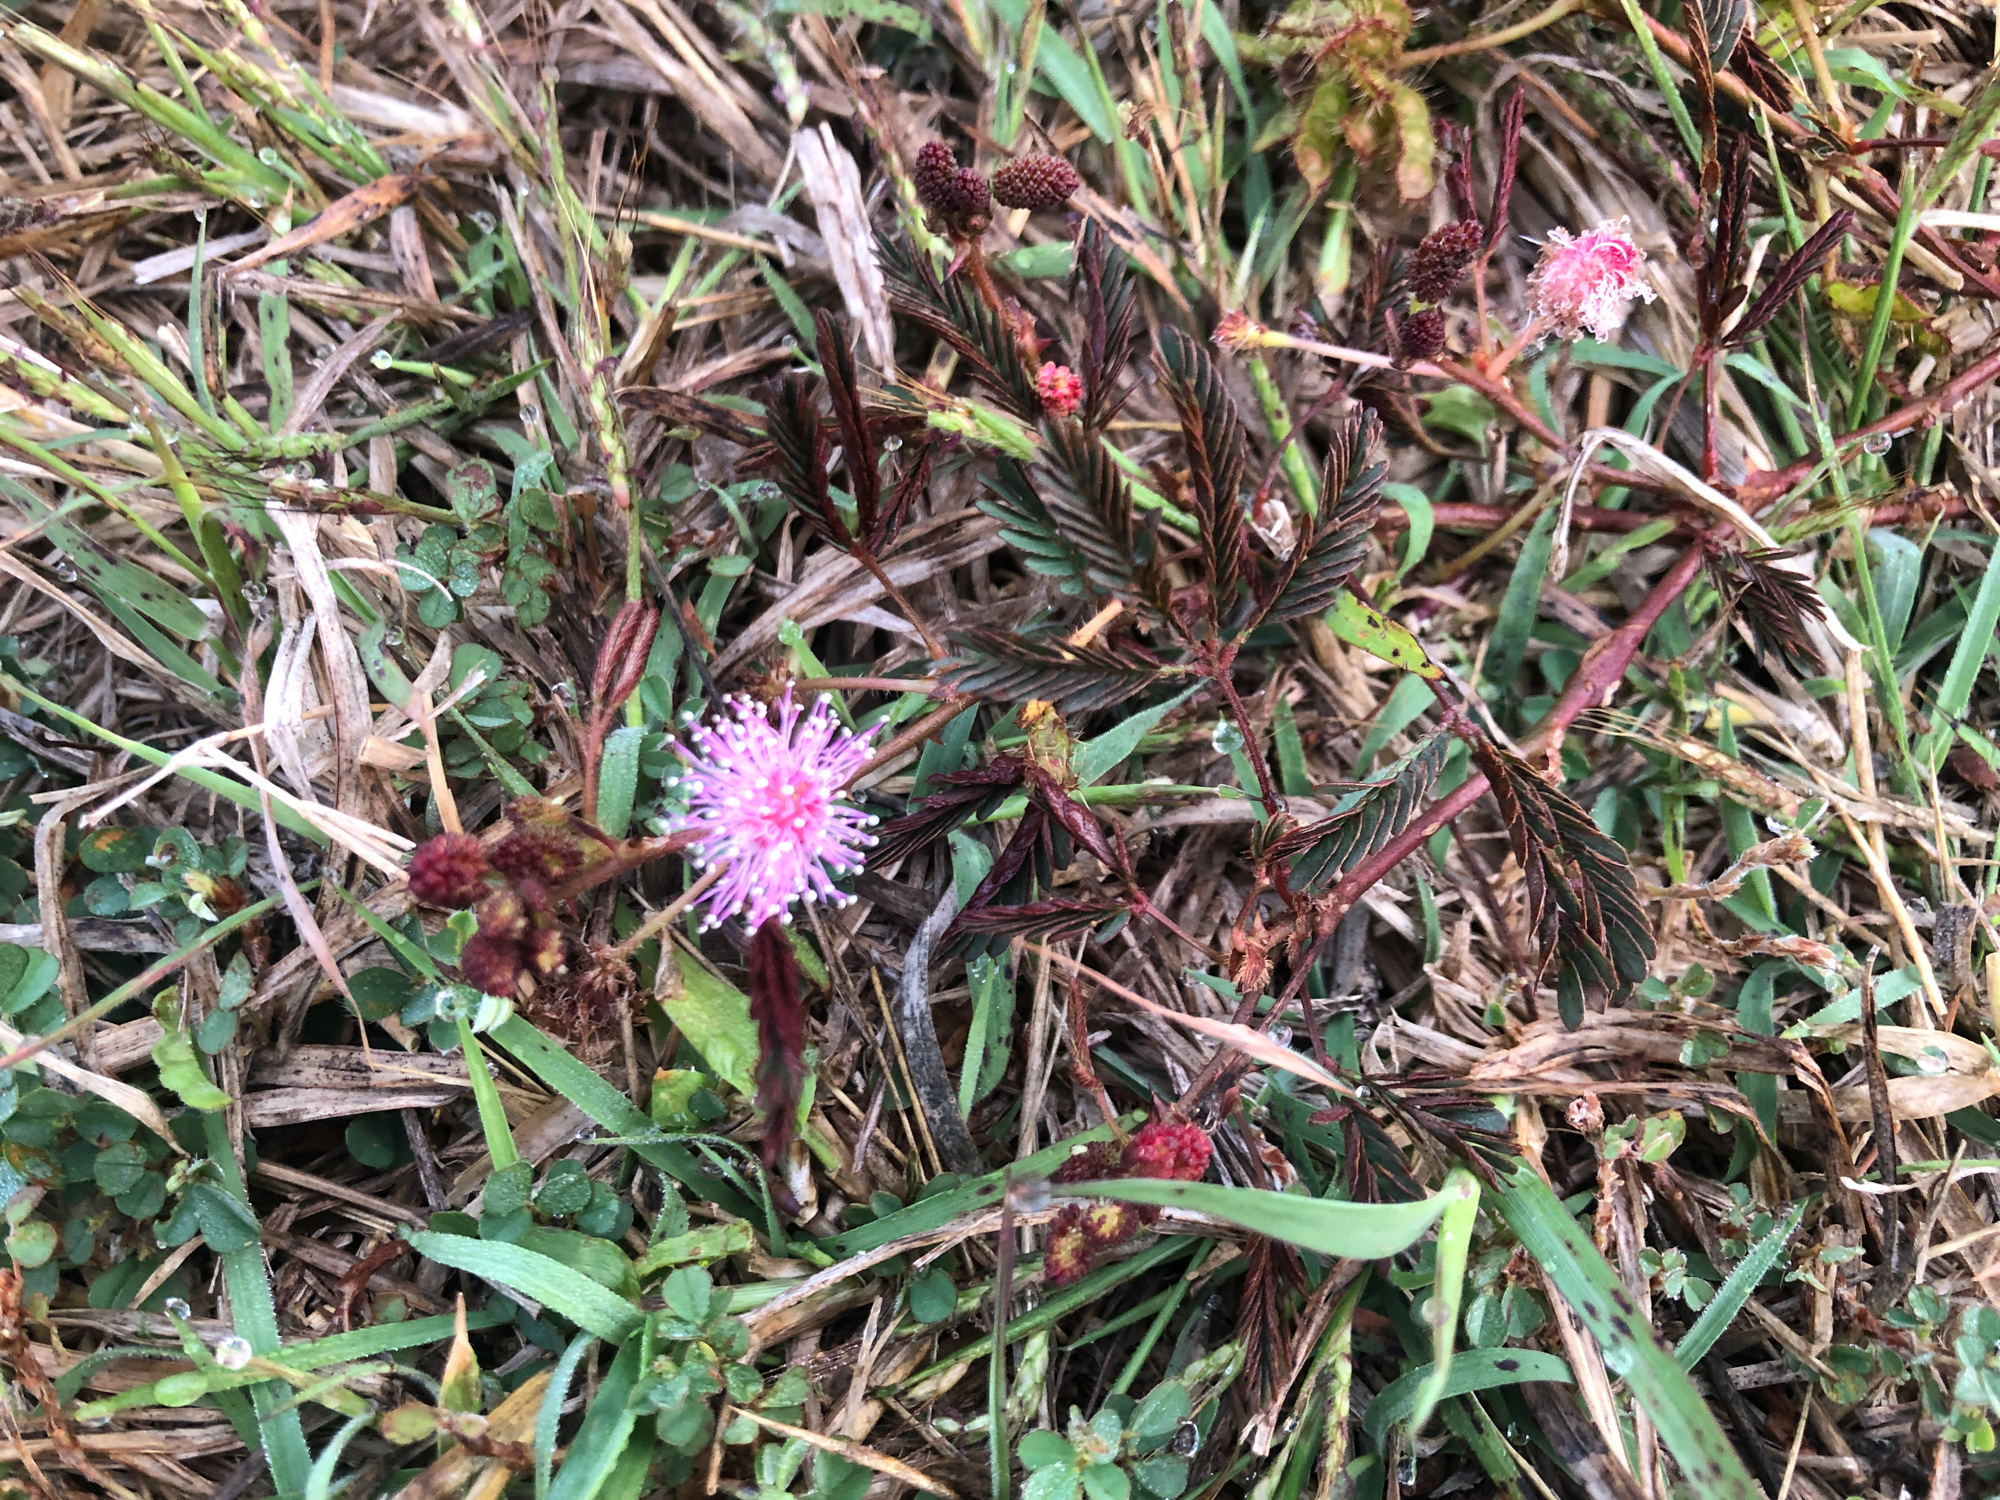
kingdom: Plantae
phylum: Tracheophyta
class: Magnoliopsida
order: Fabales
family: Fabaceae
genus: Mimosa
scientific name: Mimosa pudica
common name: Sensitive plant
